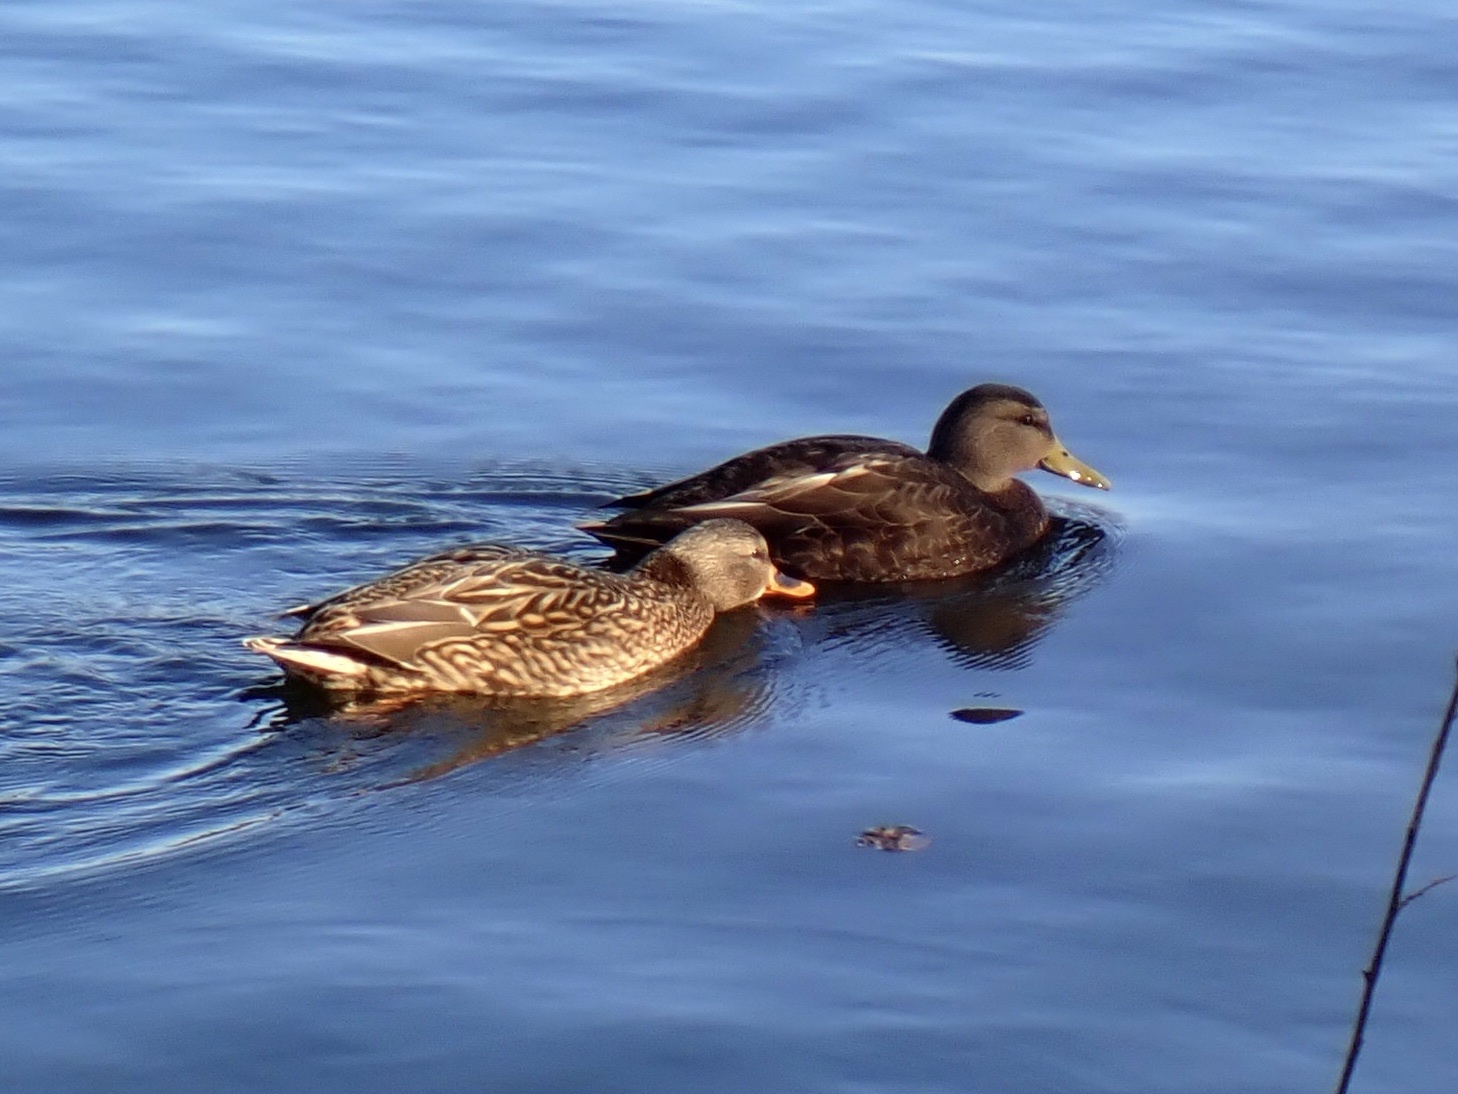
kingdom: Animalia
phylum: Chordata
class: Aves
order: Anseriformes
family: Anatidae
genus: Anas
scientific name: Anas rubripes
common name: American black duck
